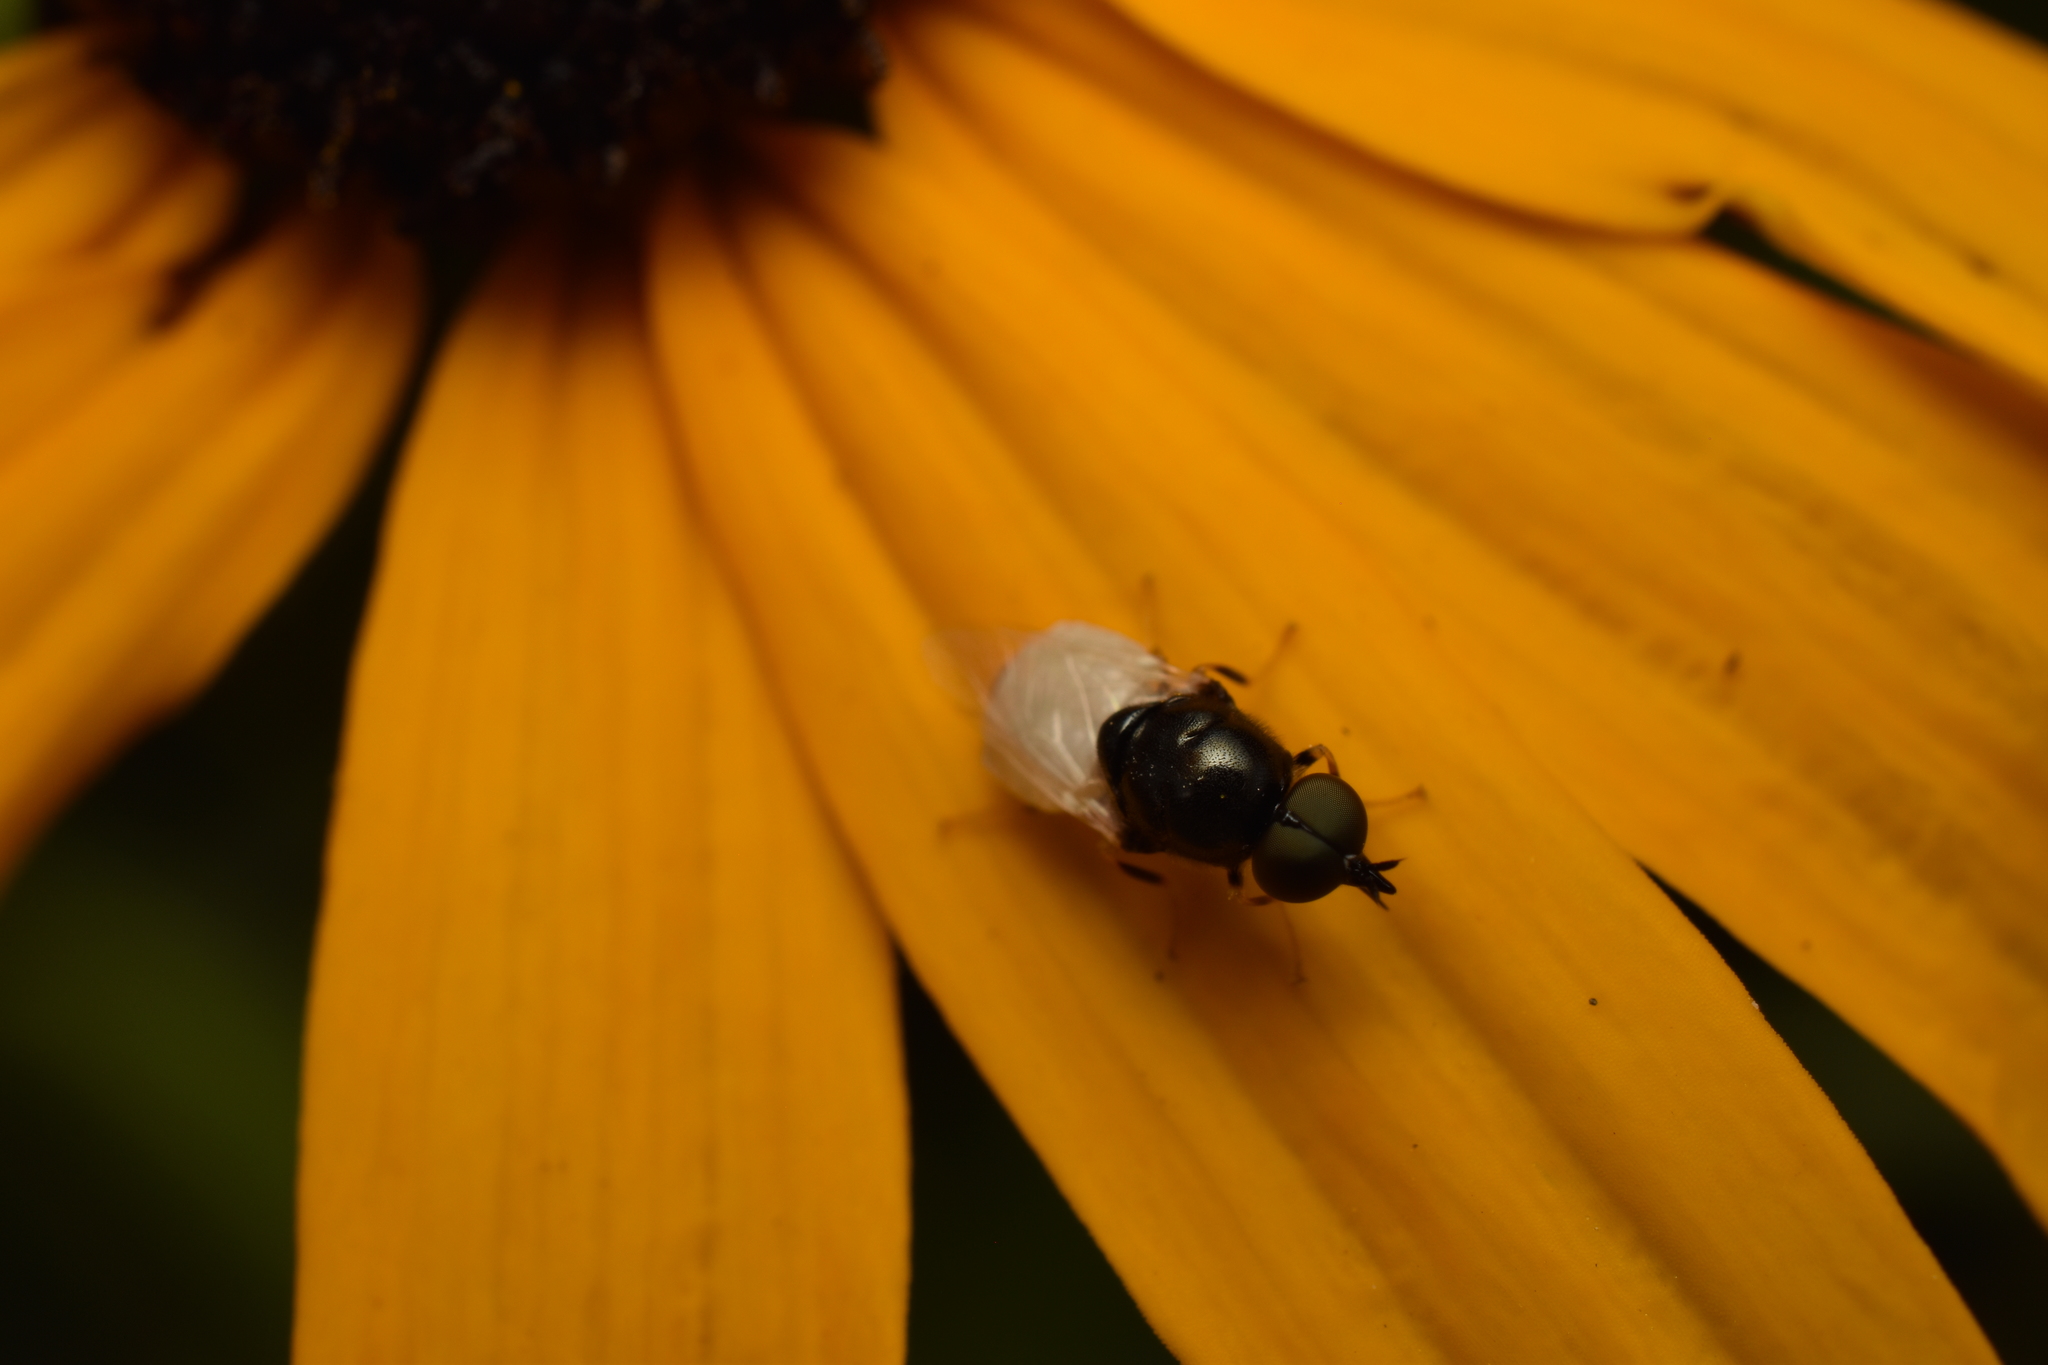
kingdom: Animalia
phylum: Arthropoda
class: Insecta
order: Diptera
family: Stratiomyidae
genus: Nemotelus
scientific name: Nemotelus kansensis
